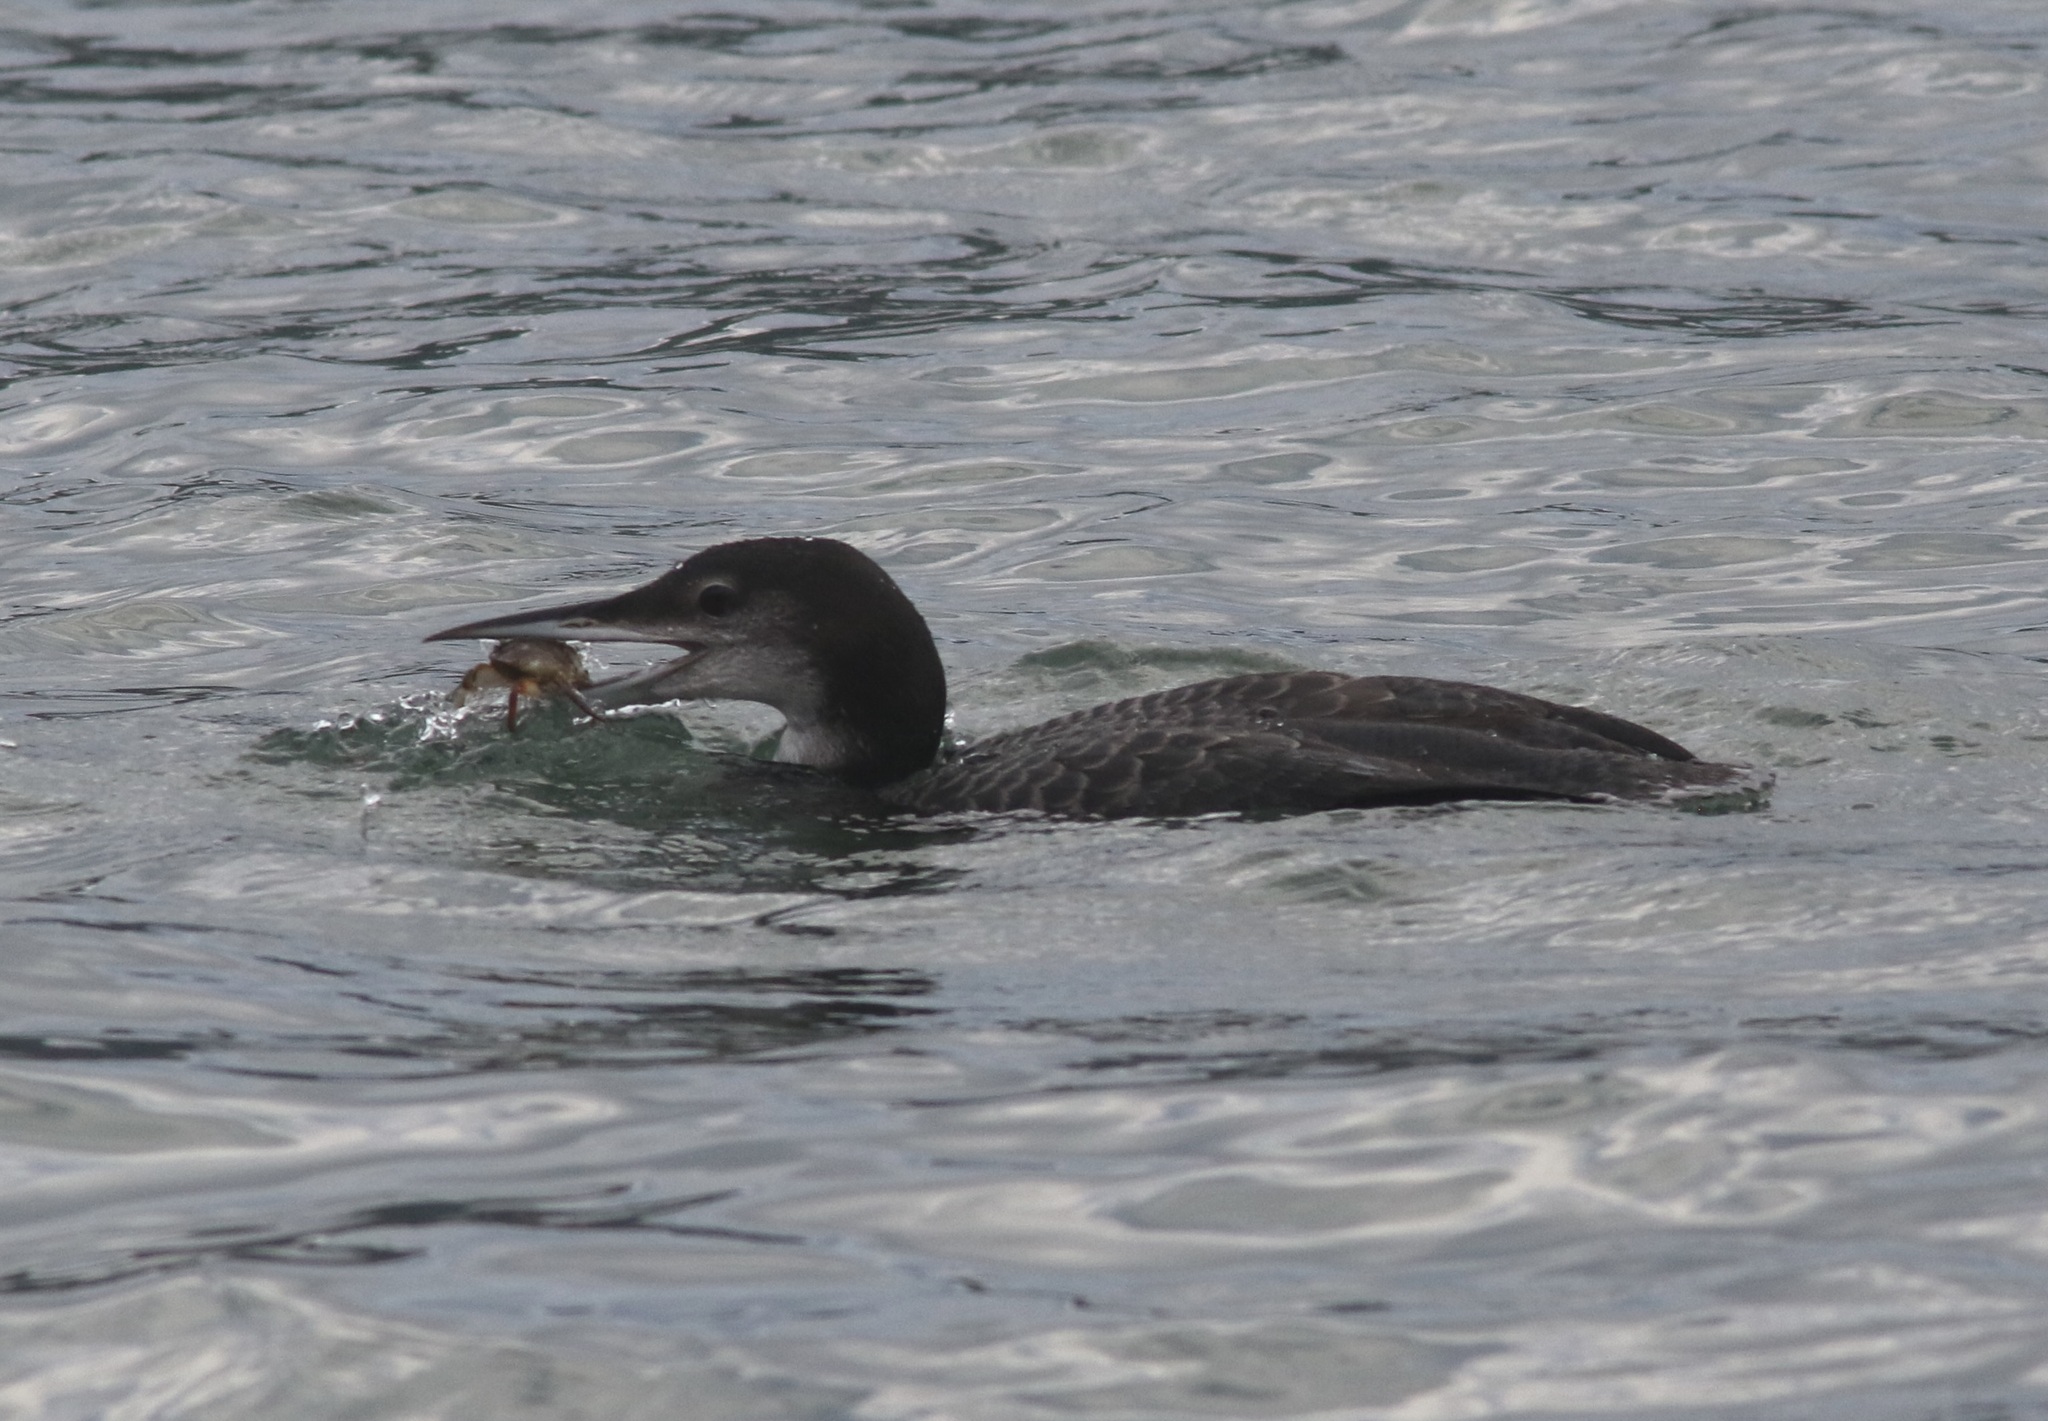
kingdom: Animalia
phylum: Chordata
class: Aves
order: Gaviiformes
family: Gaviidae
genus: Gavia
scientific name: Gavia immer
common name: Common loon
